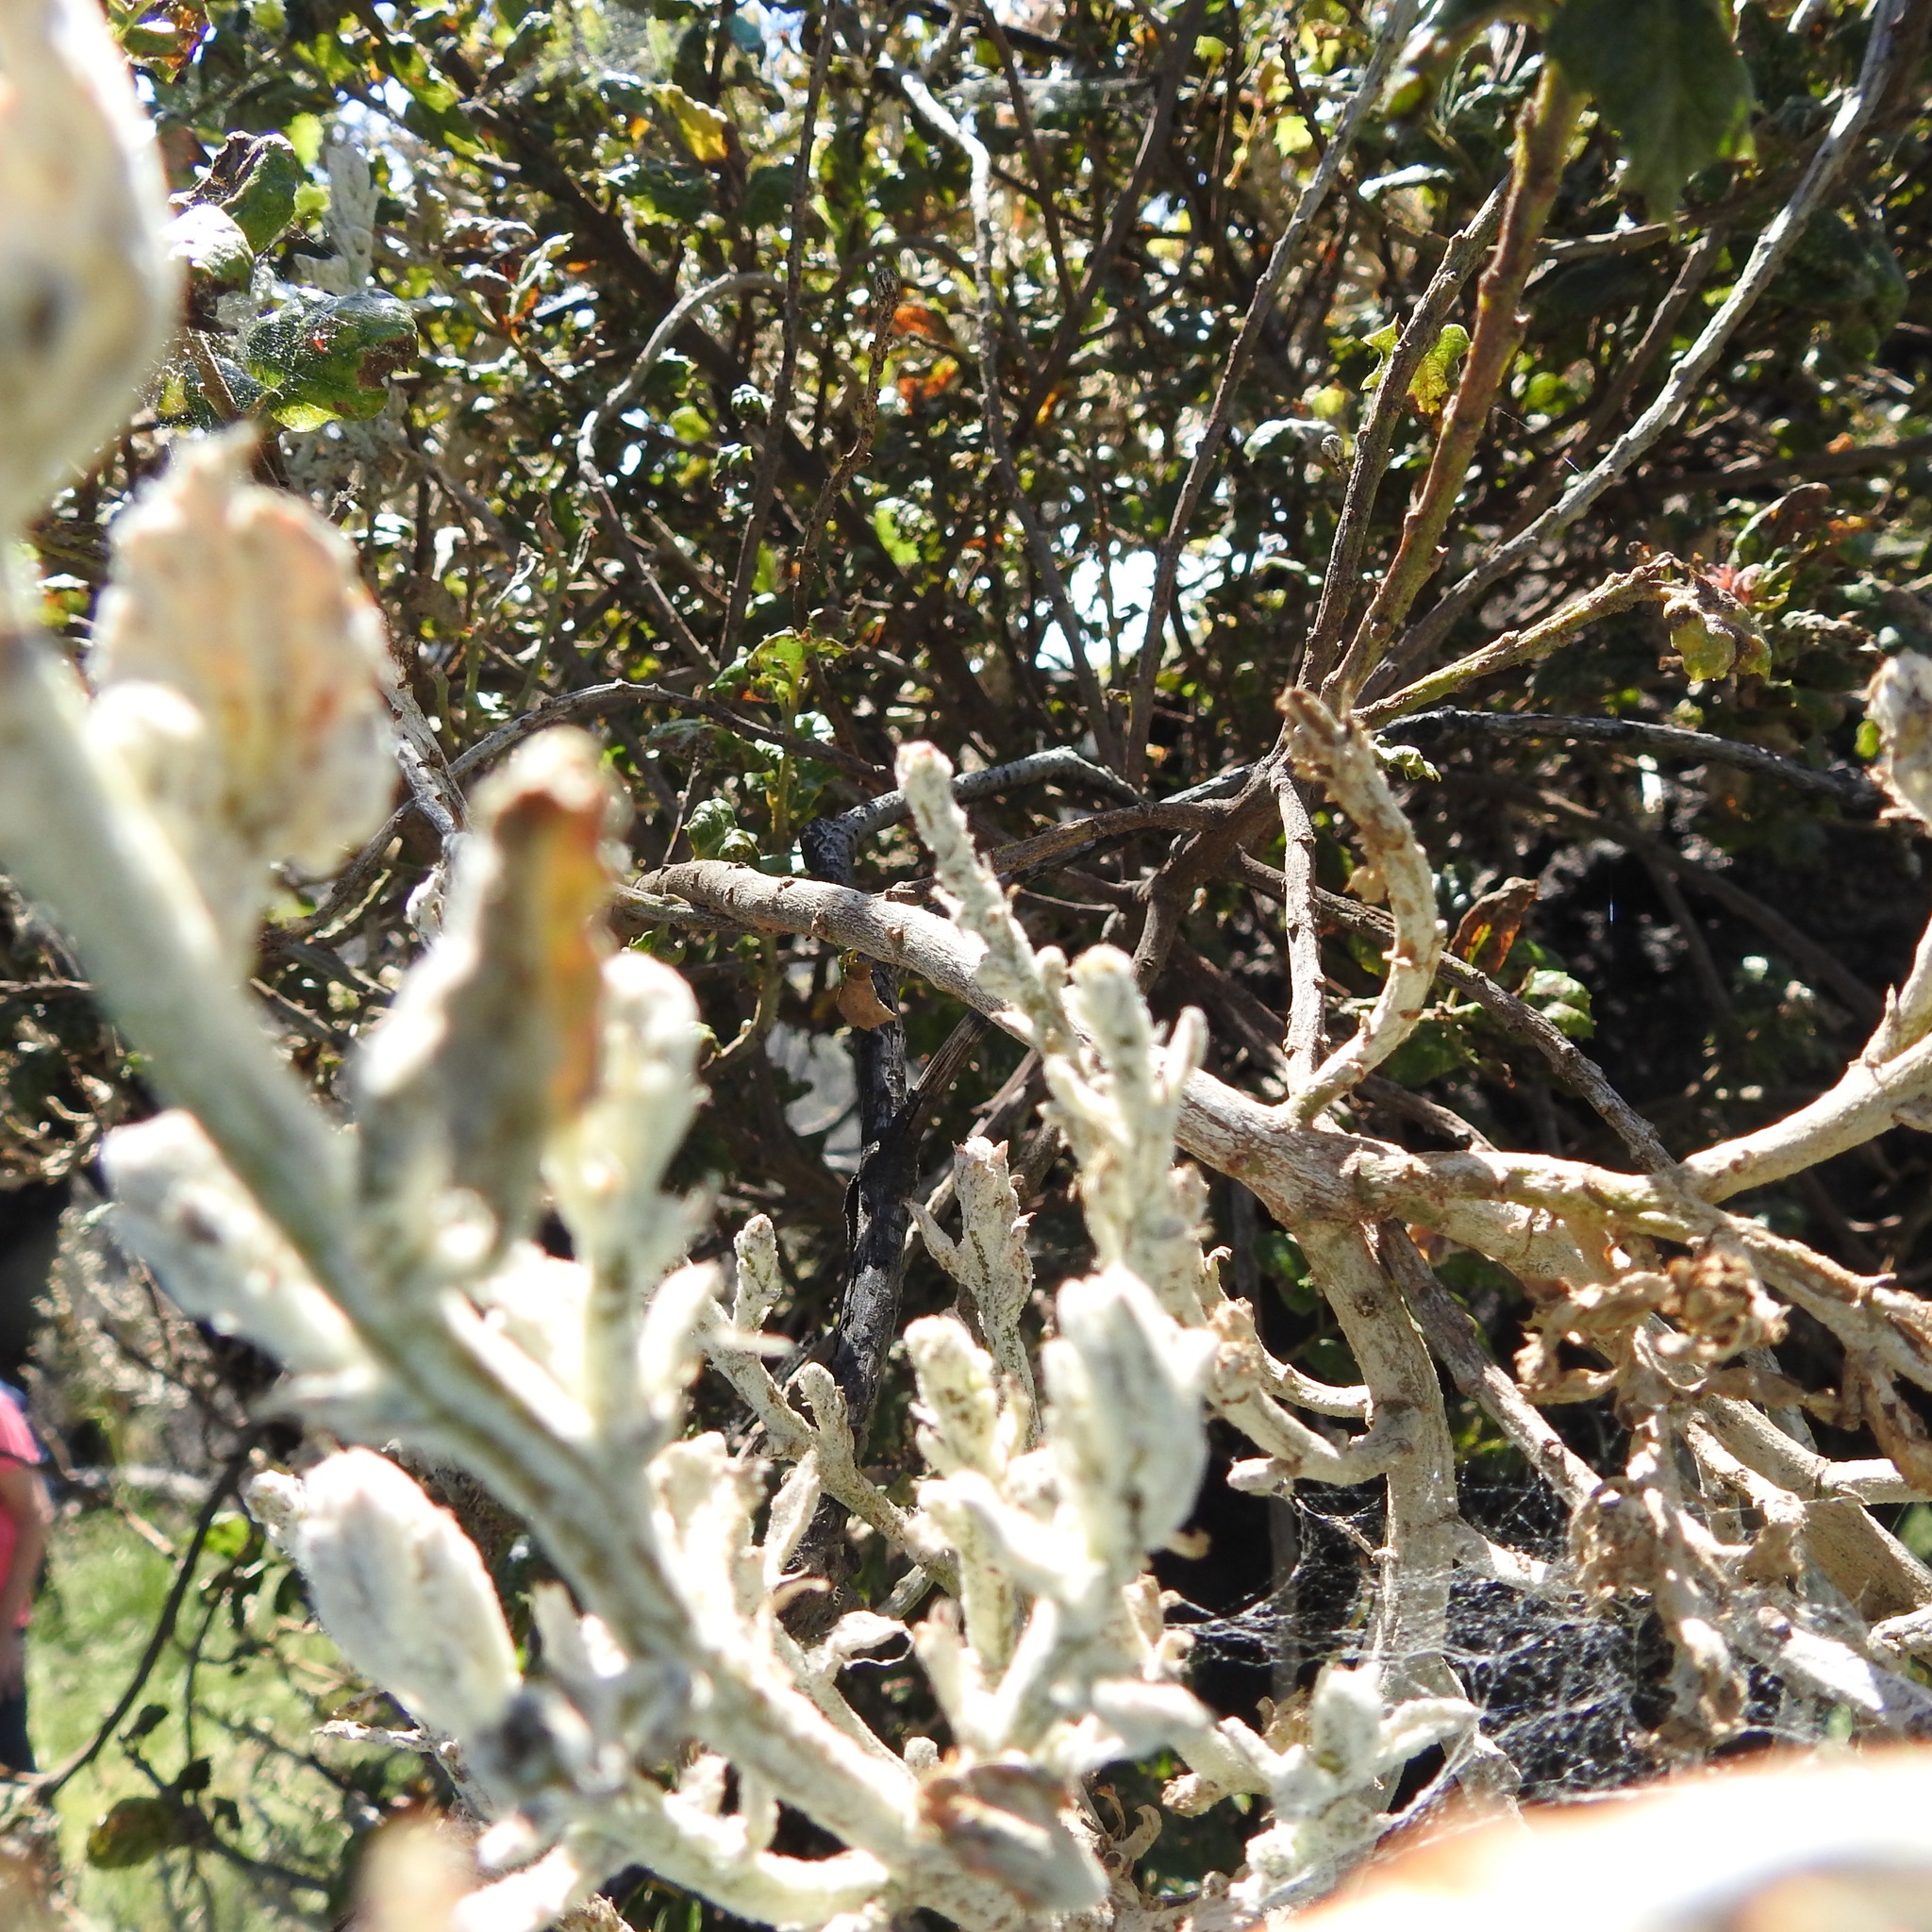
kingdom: Fungi
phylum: Ascomycota
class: Leotiomycetes
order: Helotiales
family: Erysiphaceae
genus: Cystotheca
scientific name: Cystotheca lanestris
